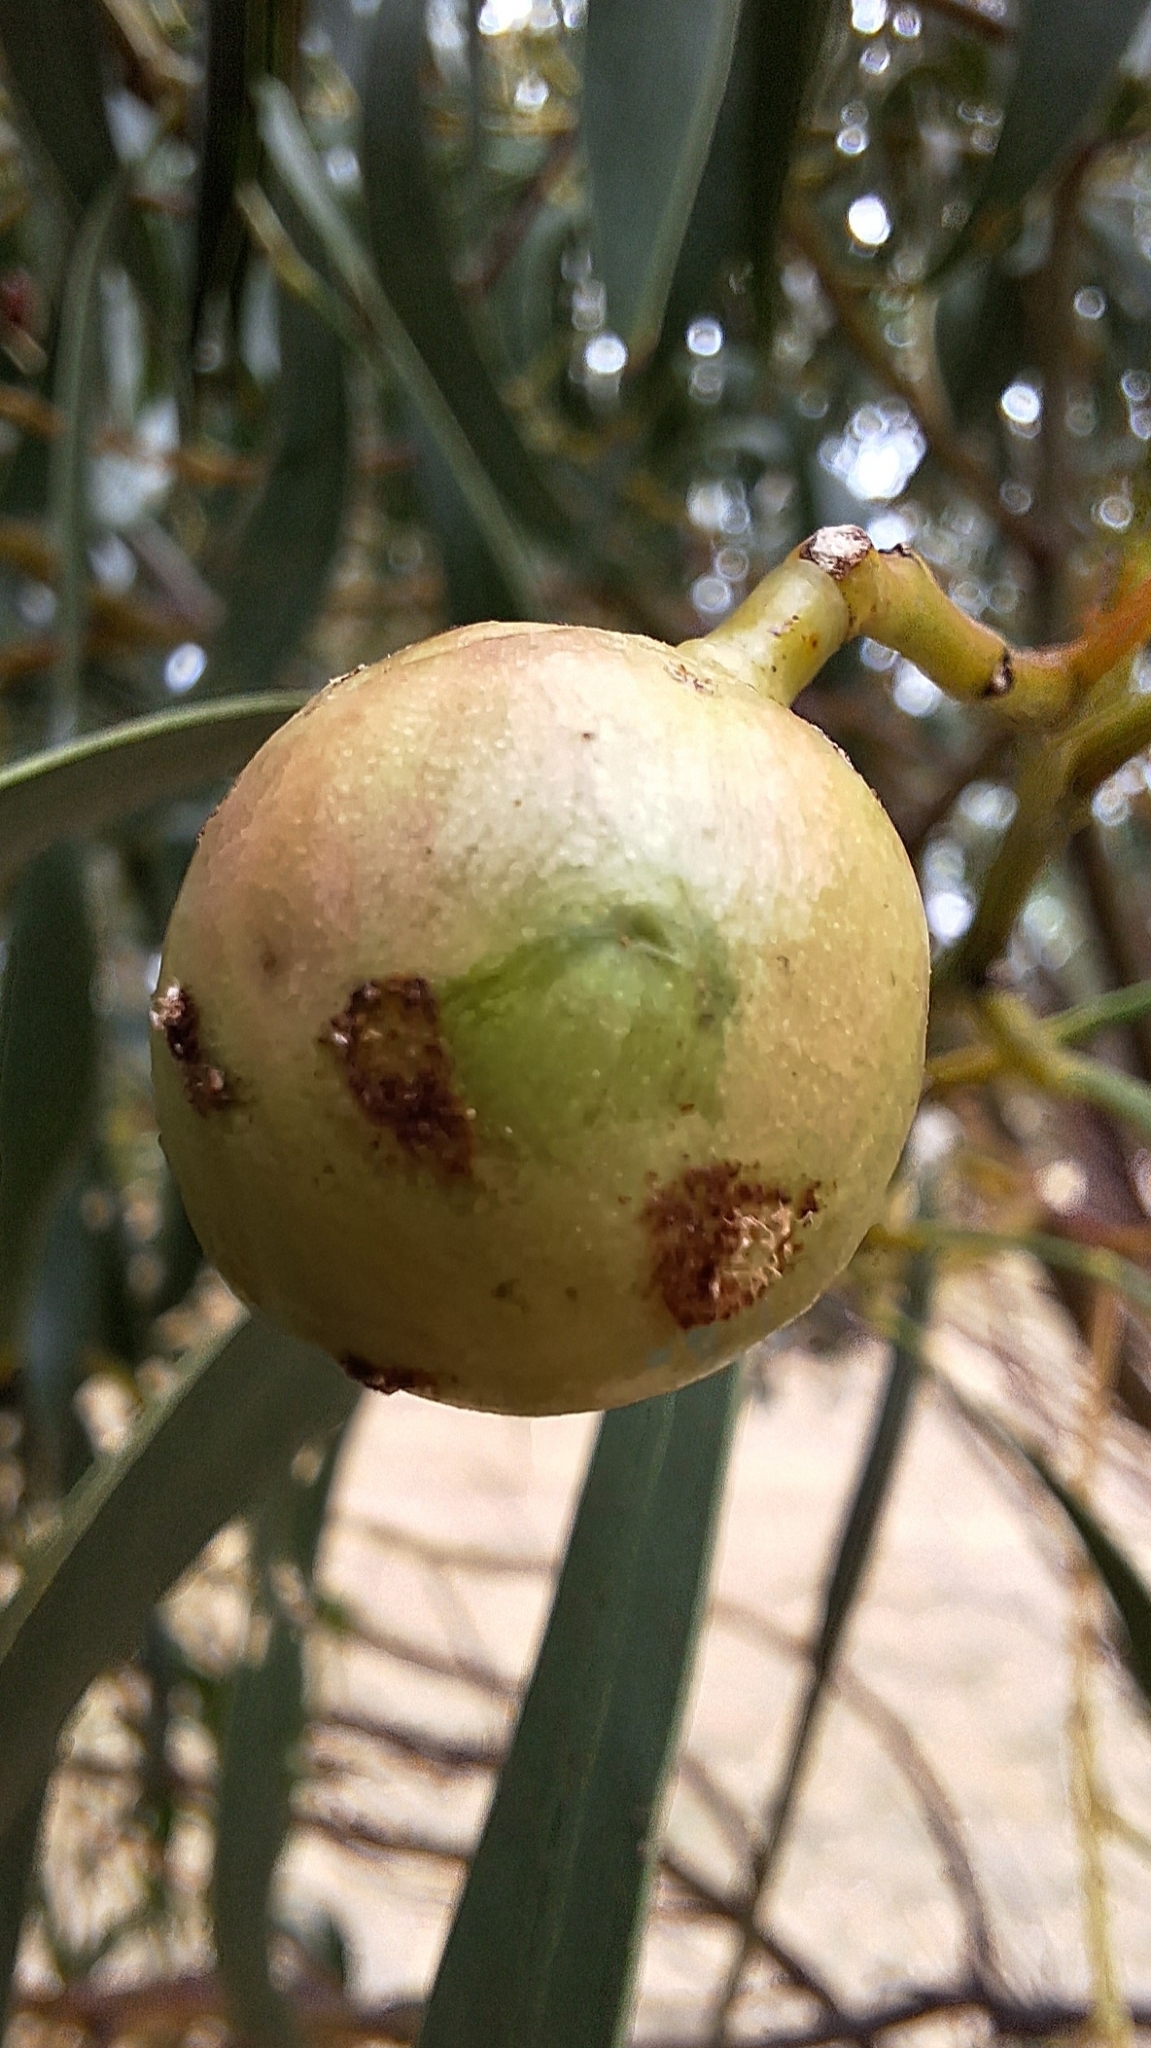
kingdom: Animalia
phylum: Arthropoda
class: Insecta
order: Hymenoptera
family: Pteromalidae
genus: Trichilogaster
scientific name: Trichilogaster signiventris
